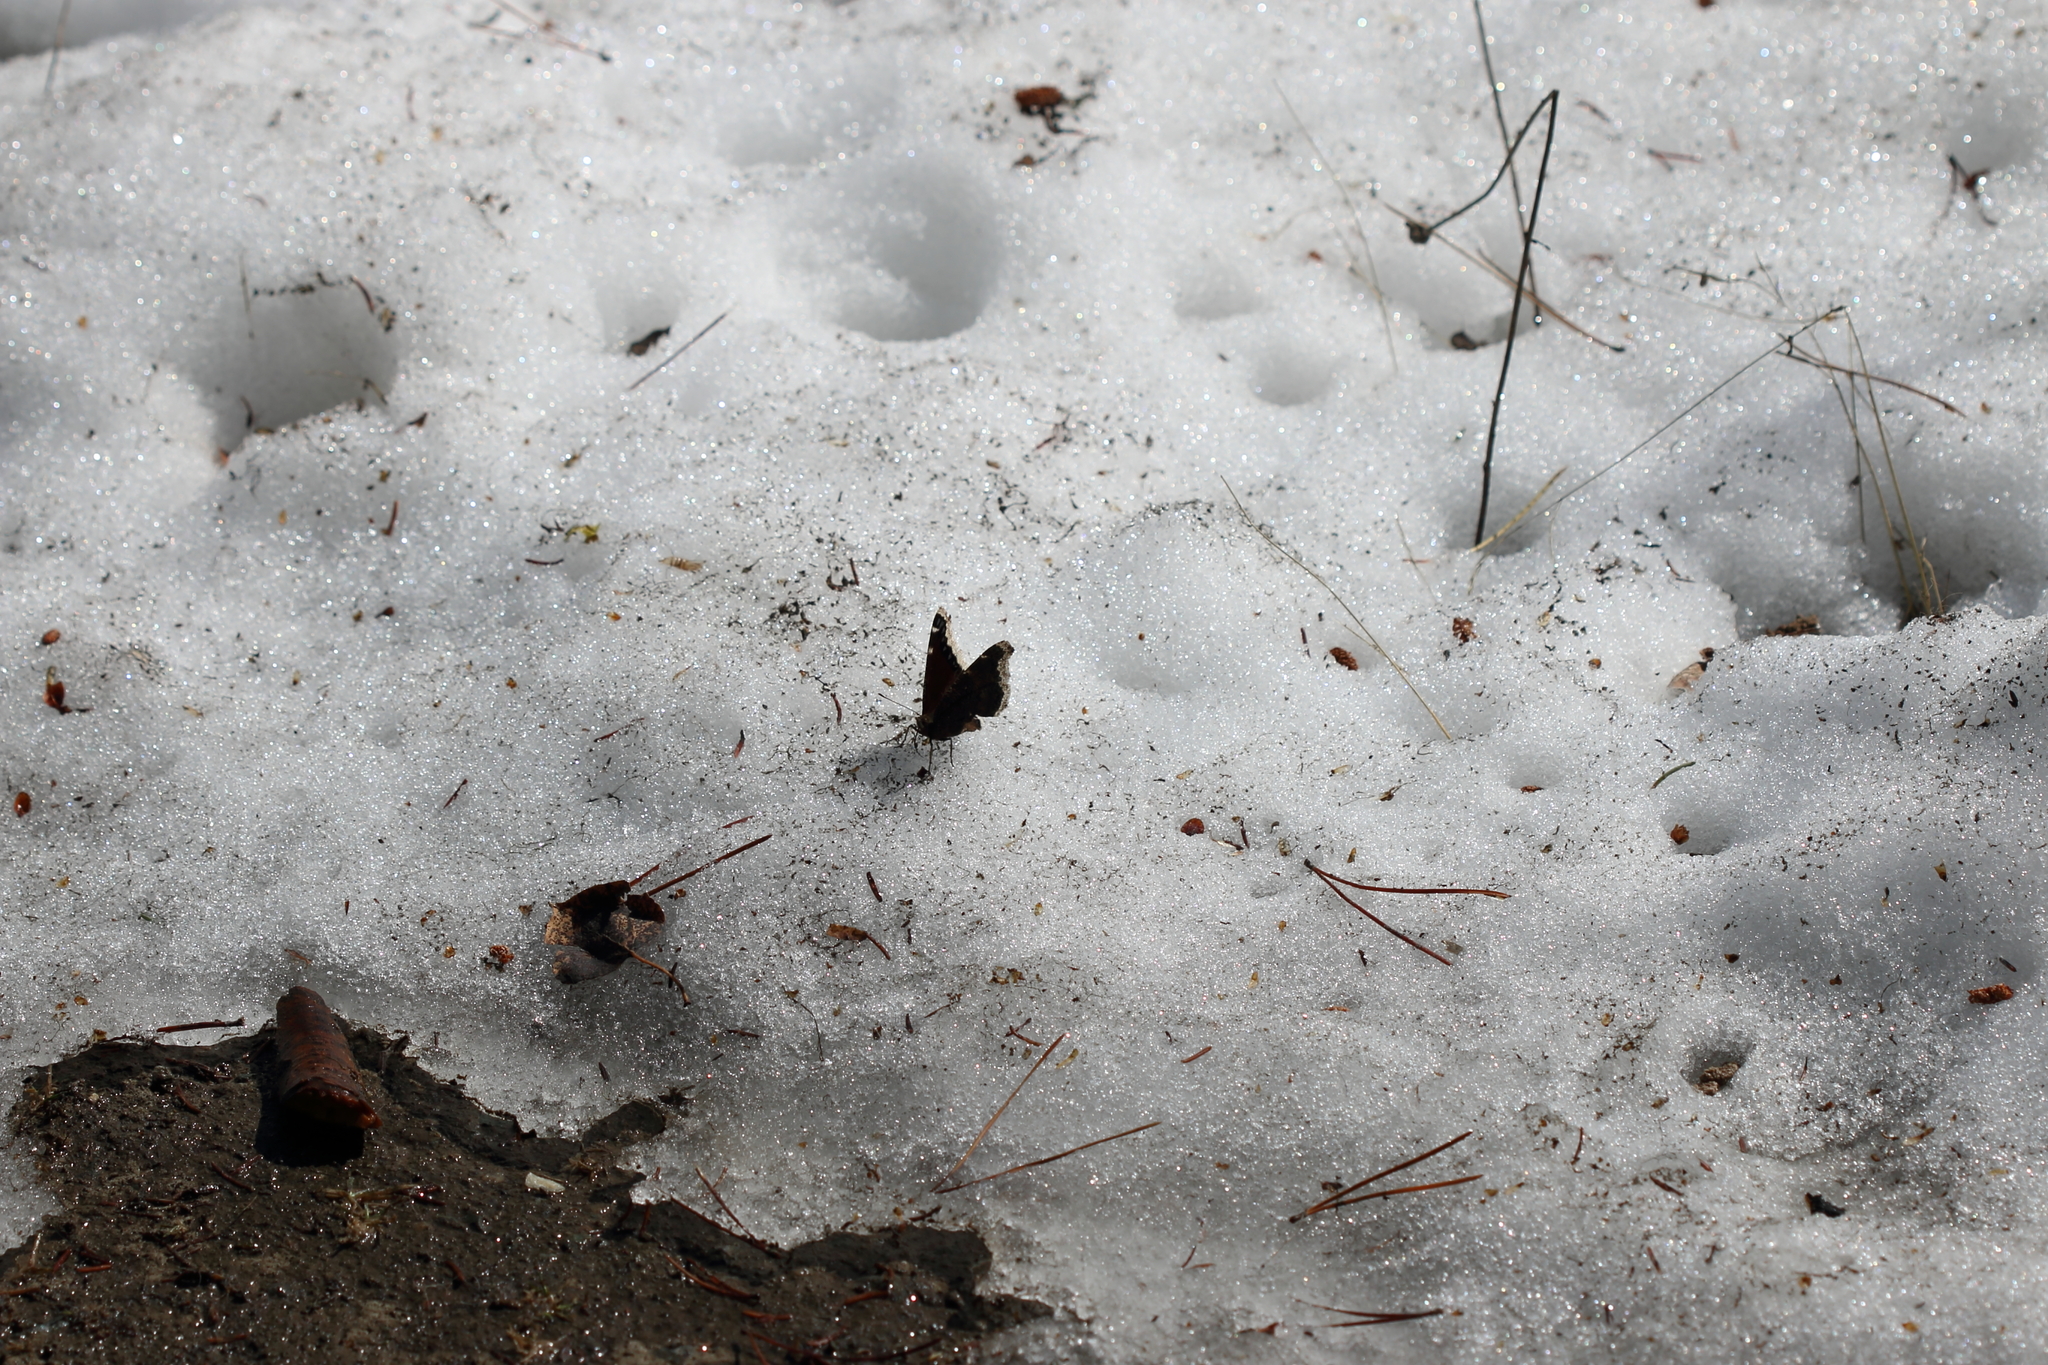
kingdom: Animalia
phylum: Arthropoda
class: Insecta
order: Lepidoptera
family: Nymphalidae
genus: Nymphalis
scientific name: Nymphalis antiopa
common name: Camberwell beauty
